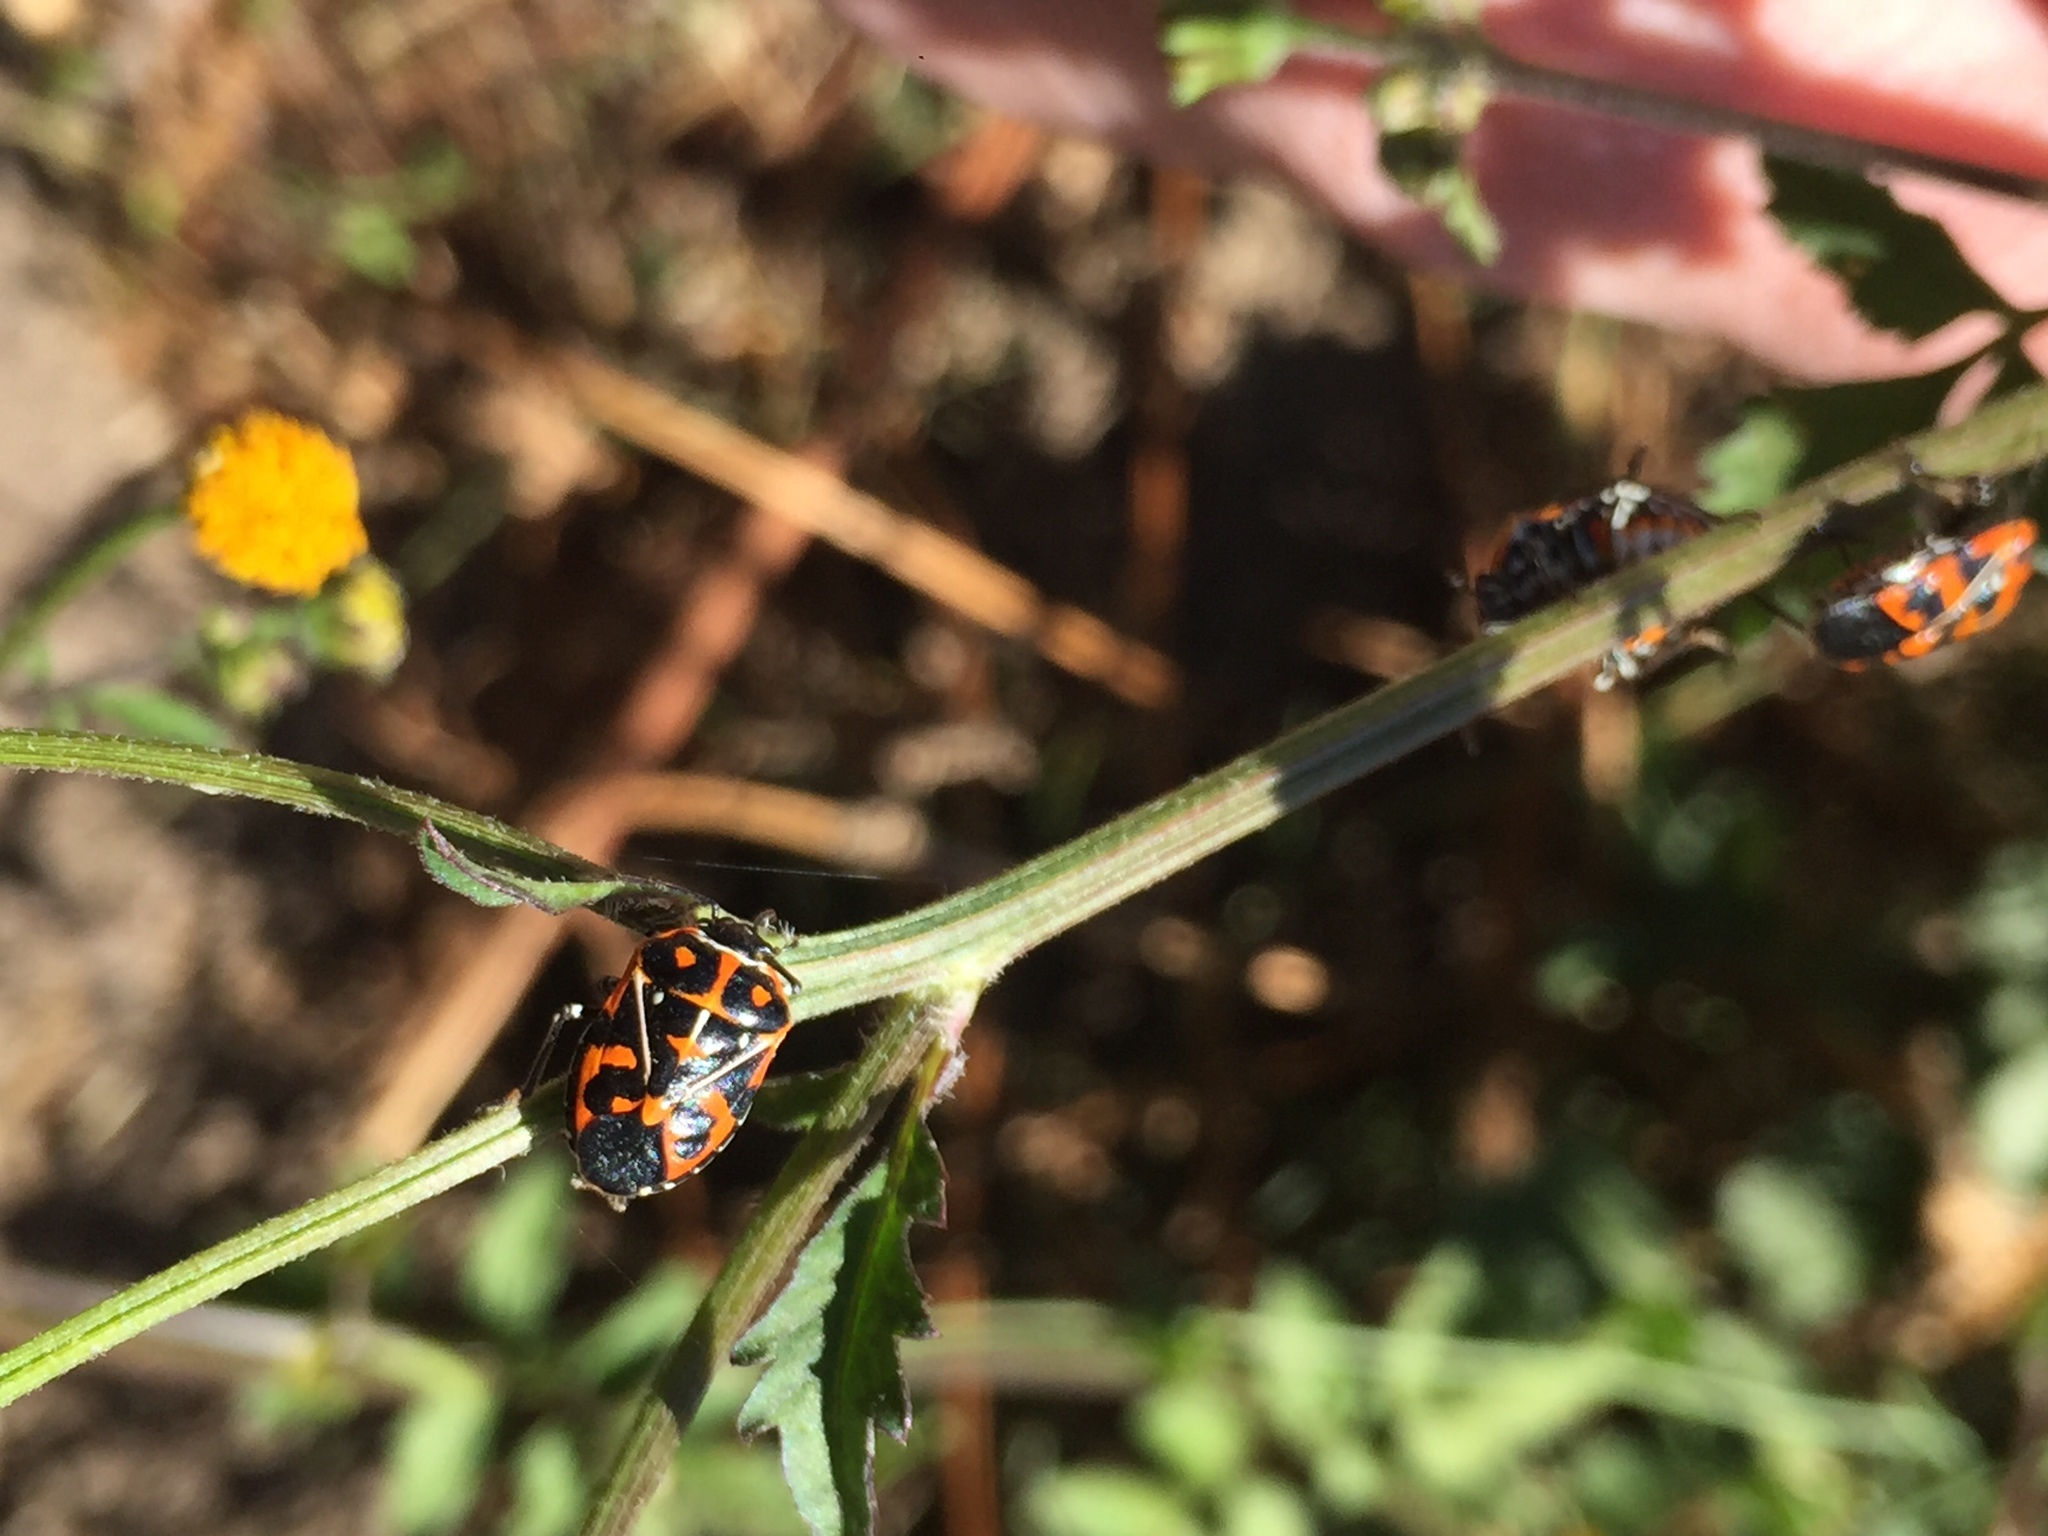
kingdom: Animalia
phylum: Arthropoda
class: Insecta
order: Hemiptera
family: Pentatomidae
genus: Murgantia
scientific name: Murgantia histrionica
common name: Harlequin bug
